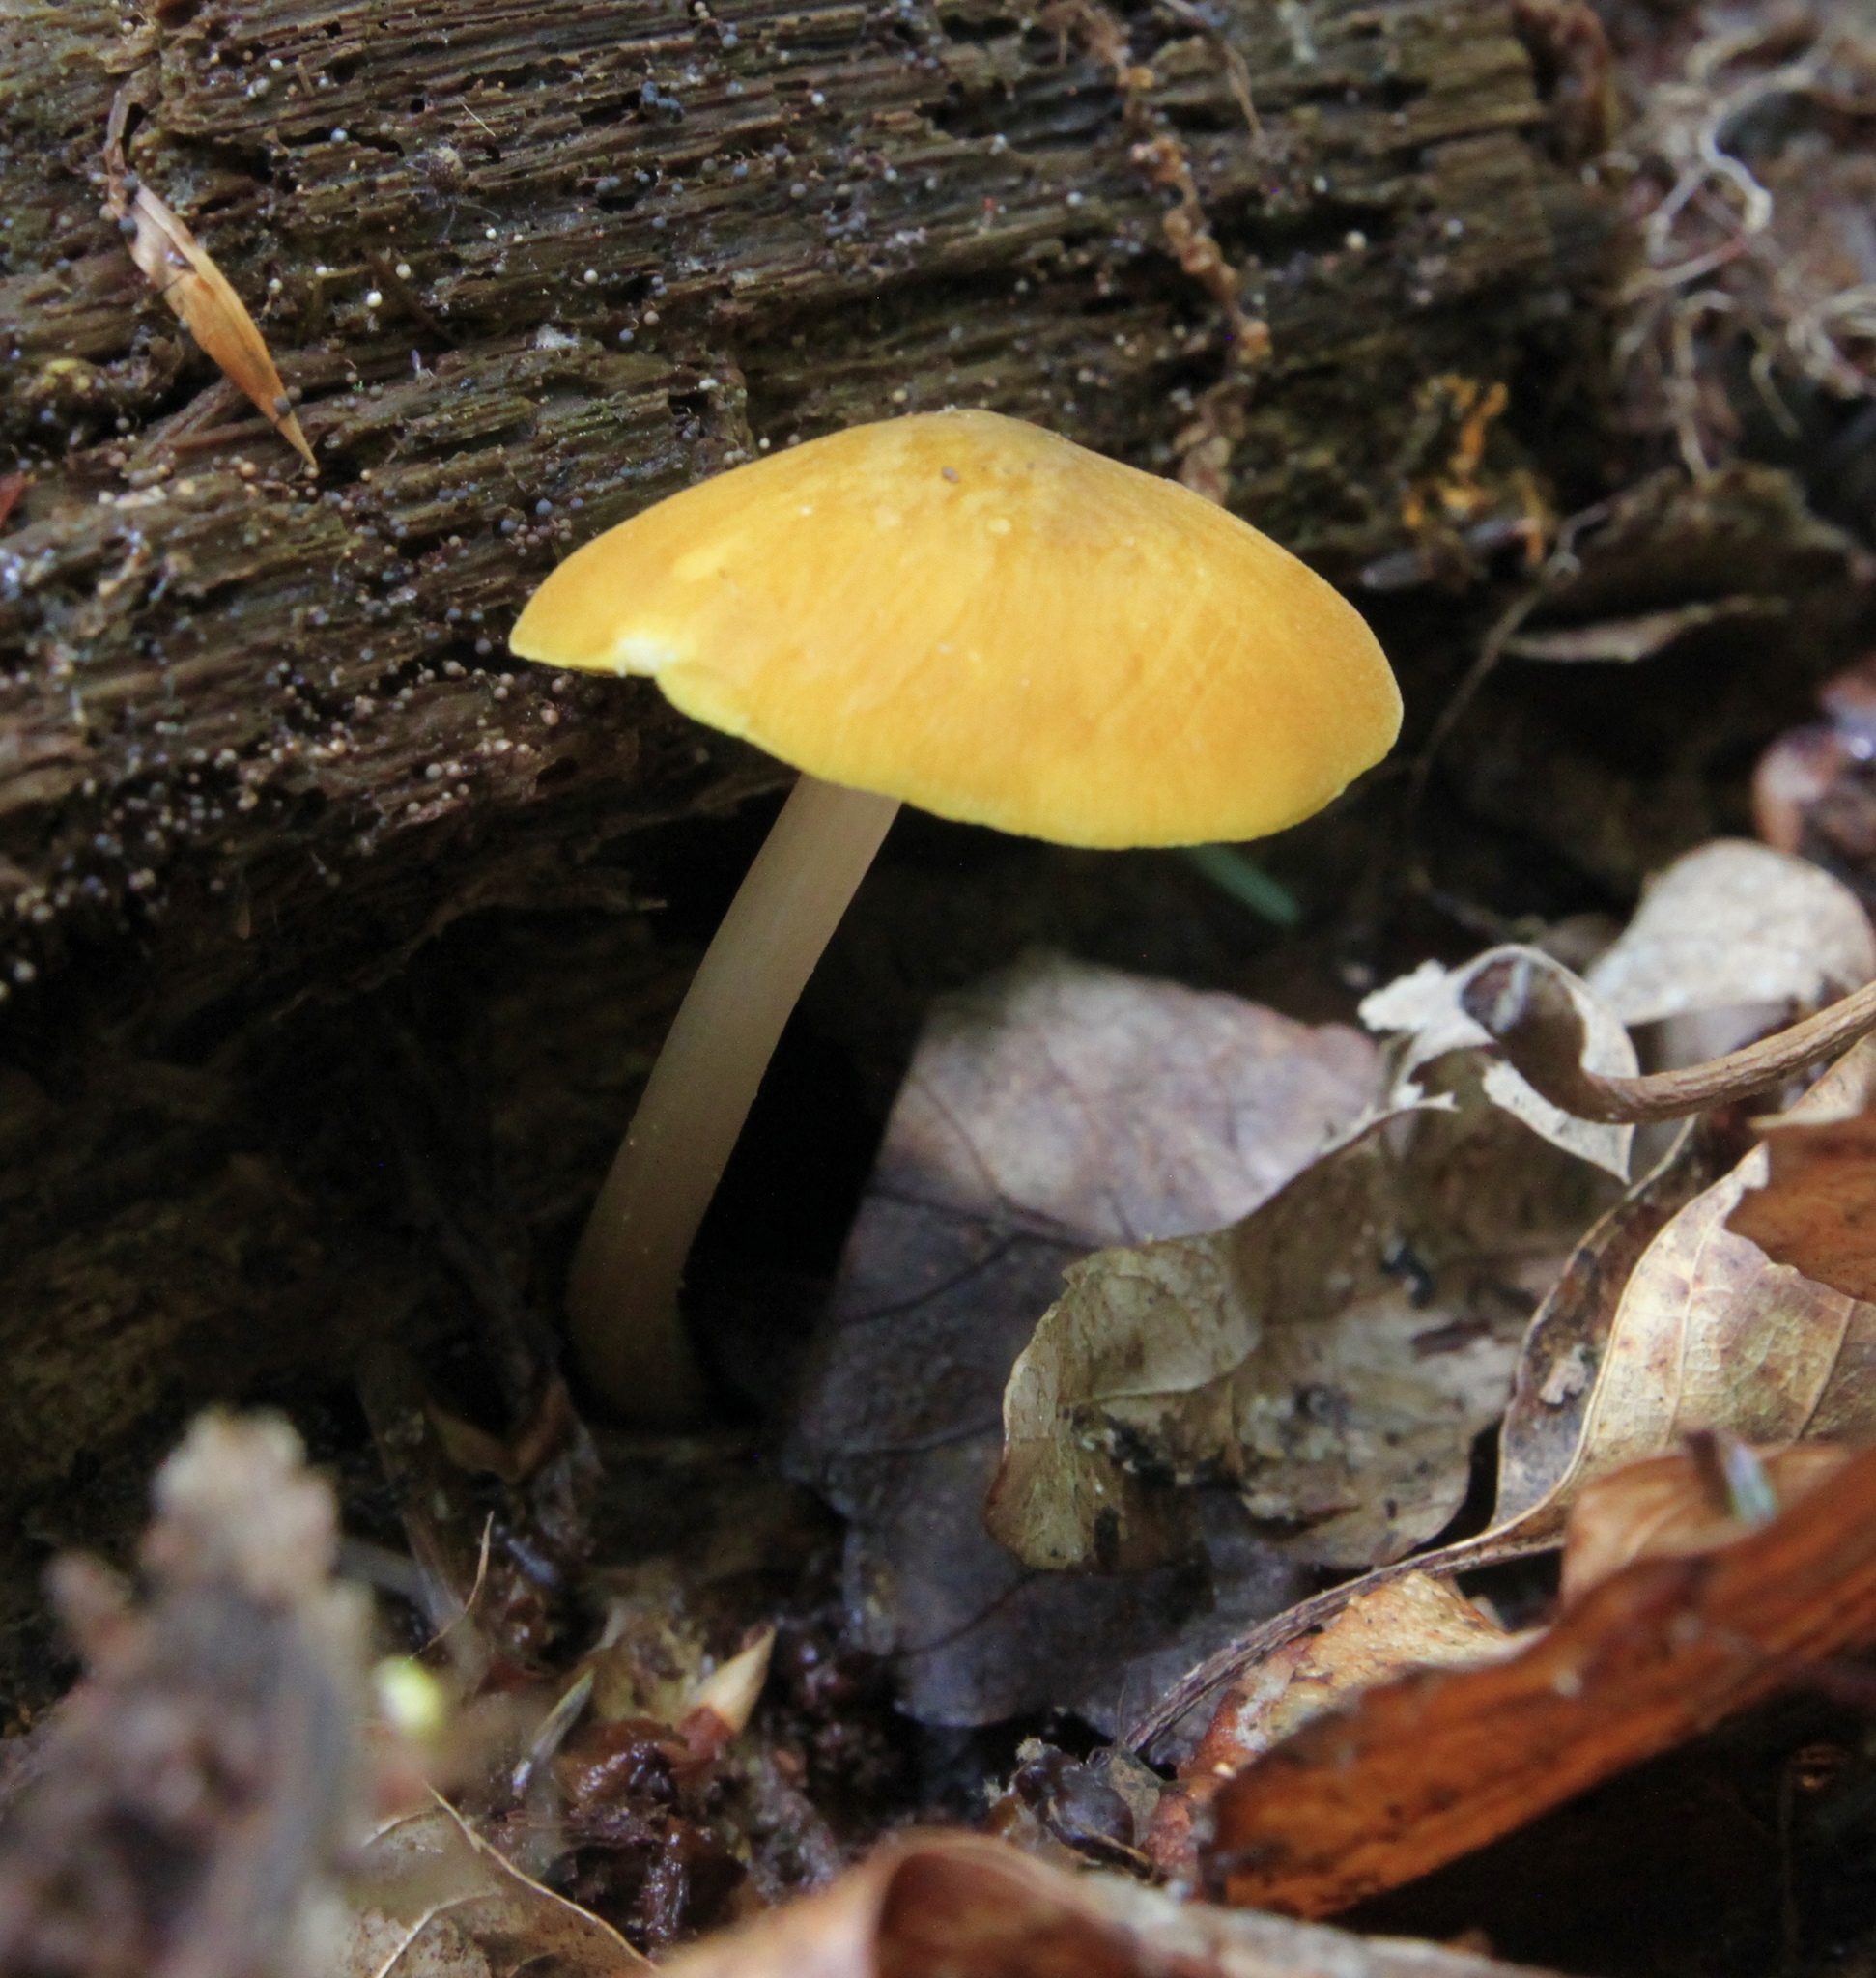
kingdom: Fungi
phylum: Basidiomycota
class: Agaricomycetes
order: Agaricales
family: Pluteaceae
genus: Pluteus
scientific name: Pluteus leoninus
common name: Lion shield
